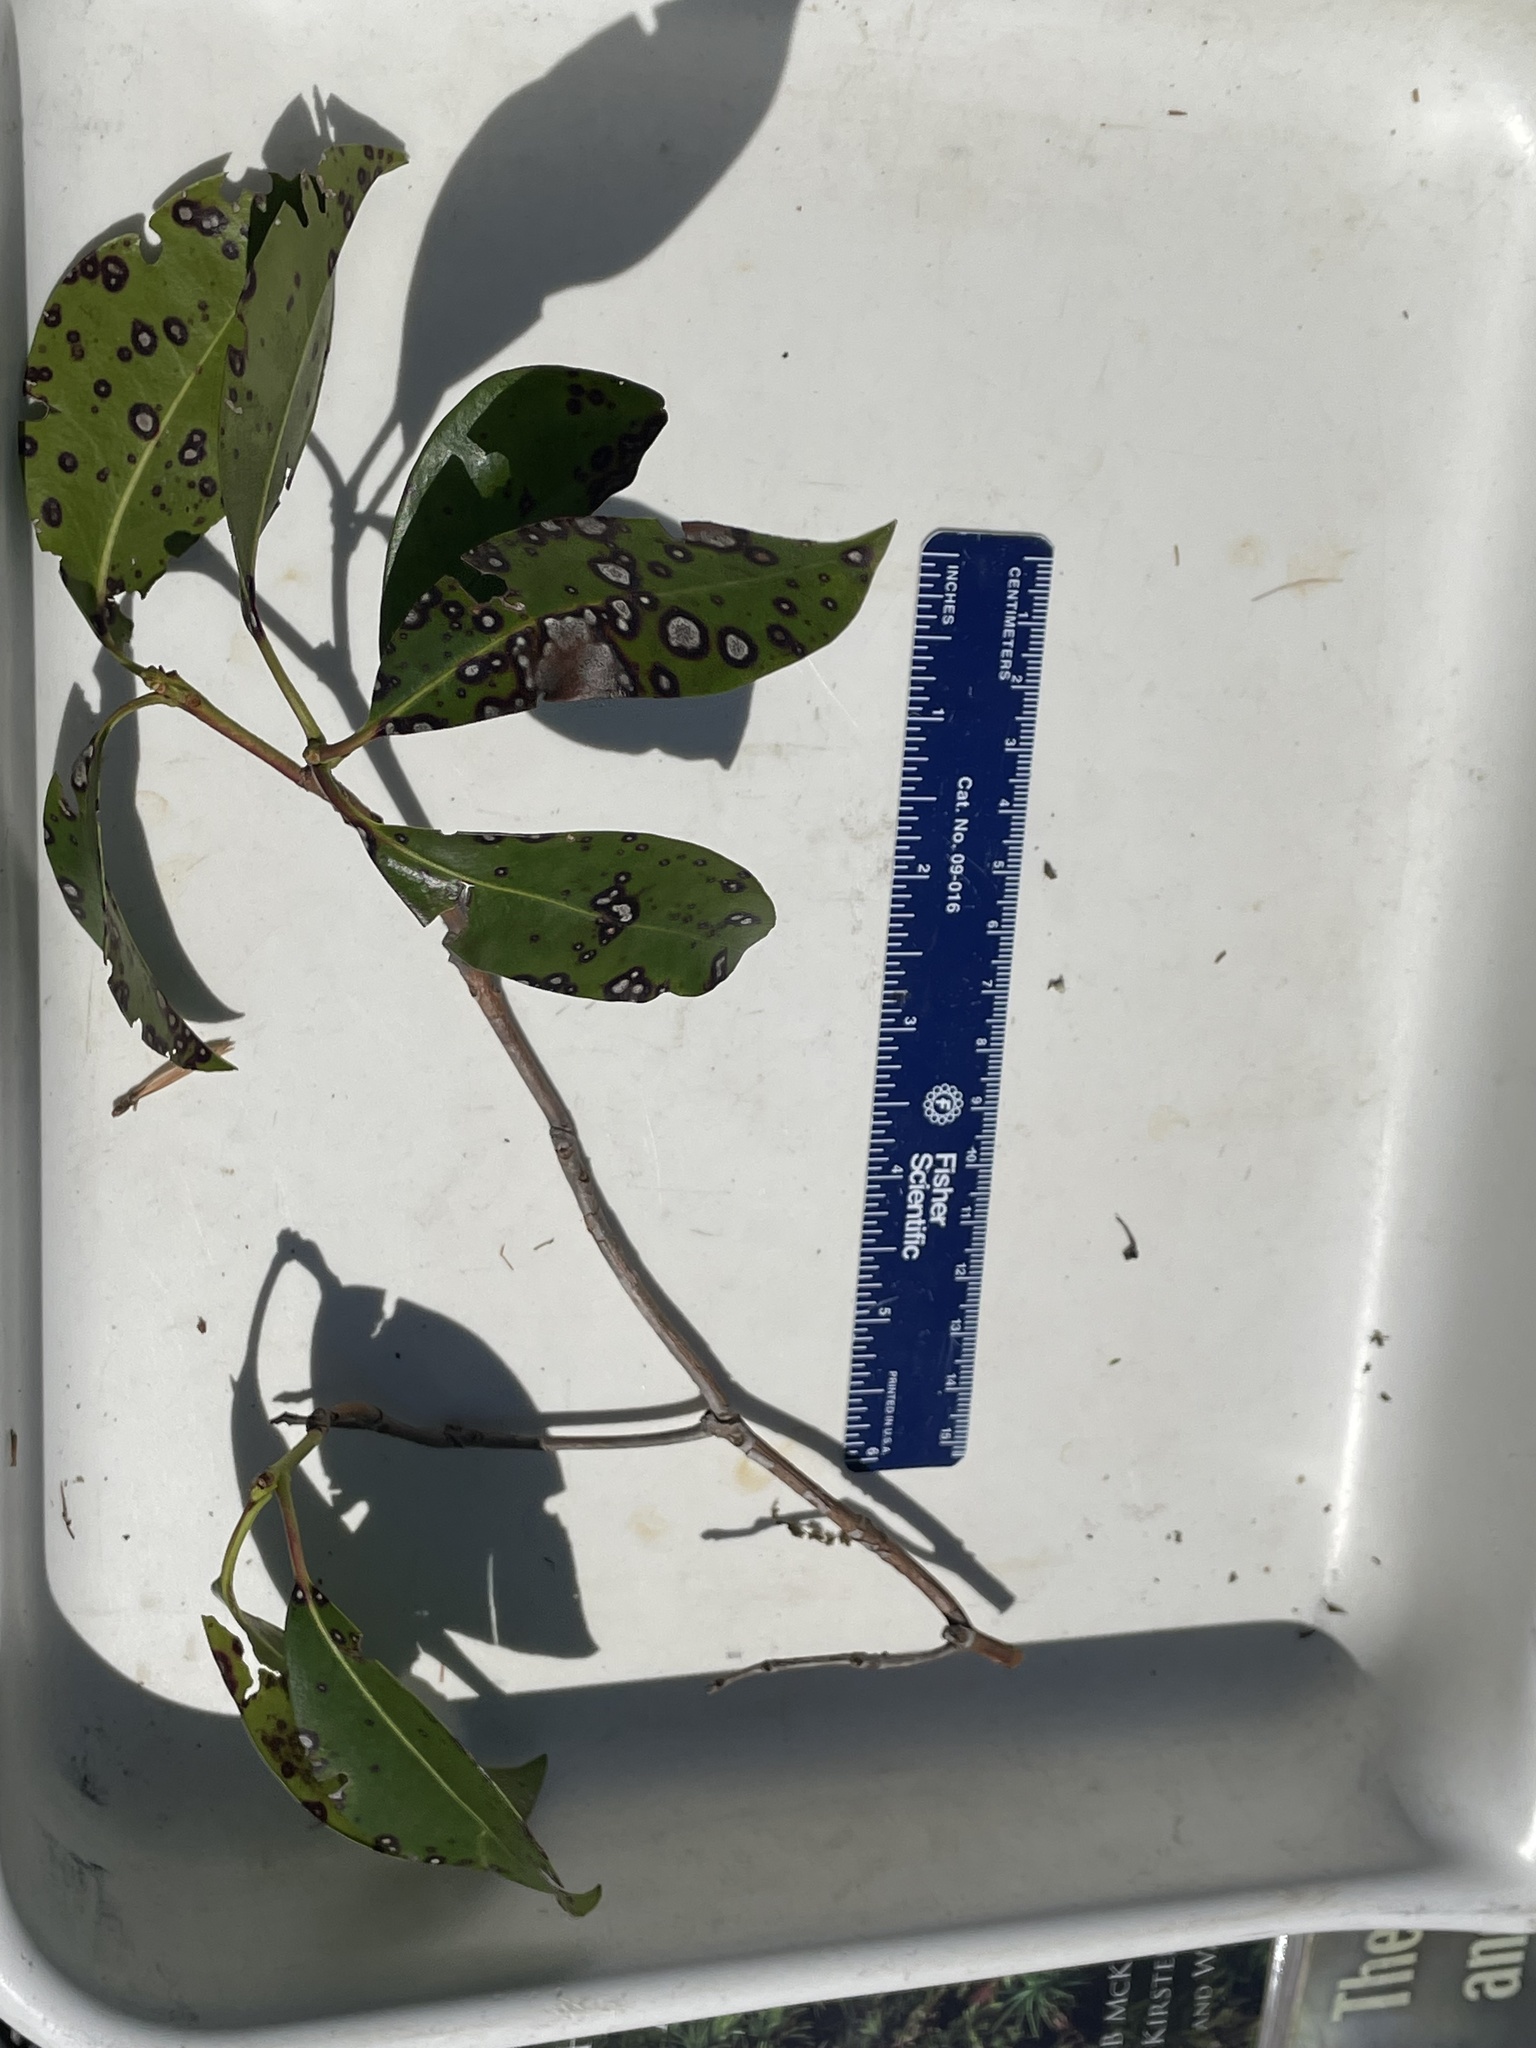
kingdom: Plantae
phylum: Tracheophyta
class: Magnoliopsida
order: Ericales
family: Ericaceae
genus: Kalmia
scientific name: Kalmia latifolia
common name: Mountain-laurel
